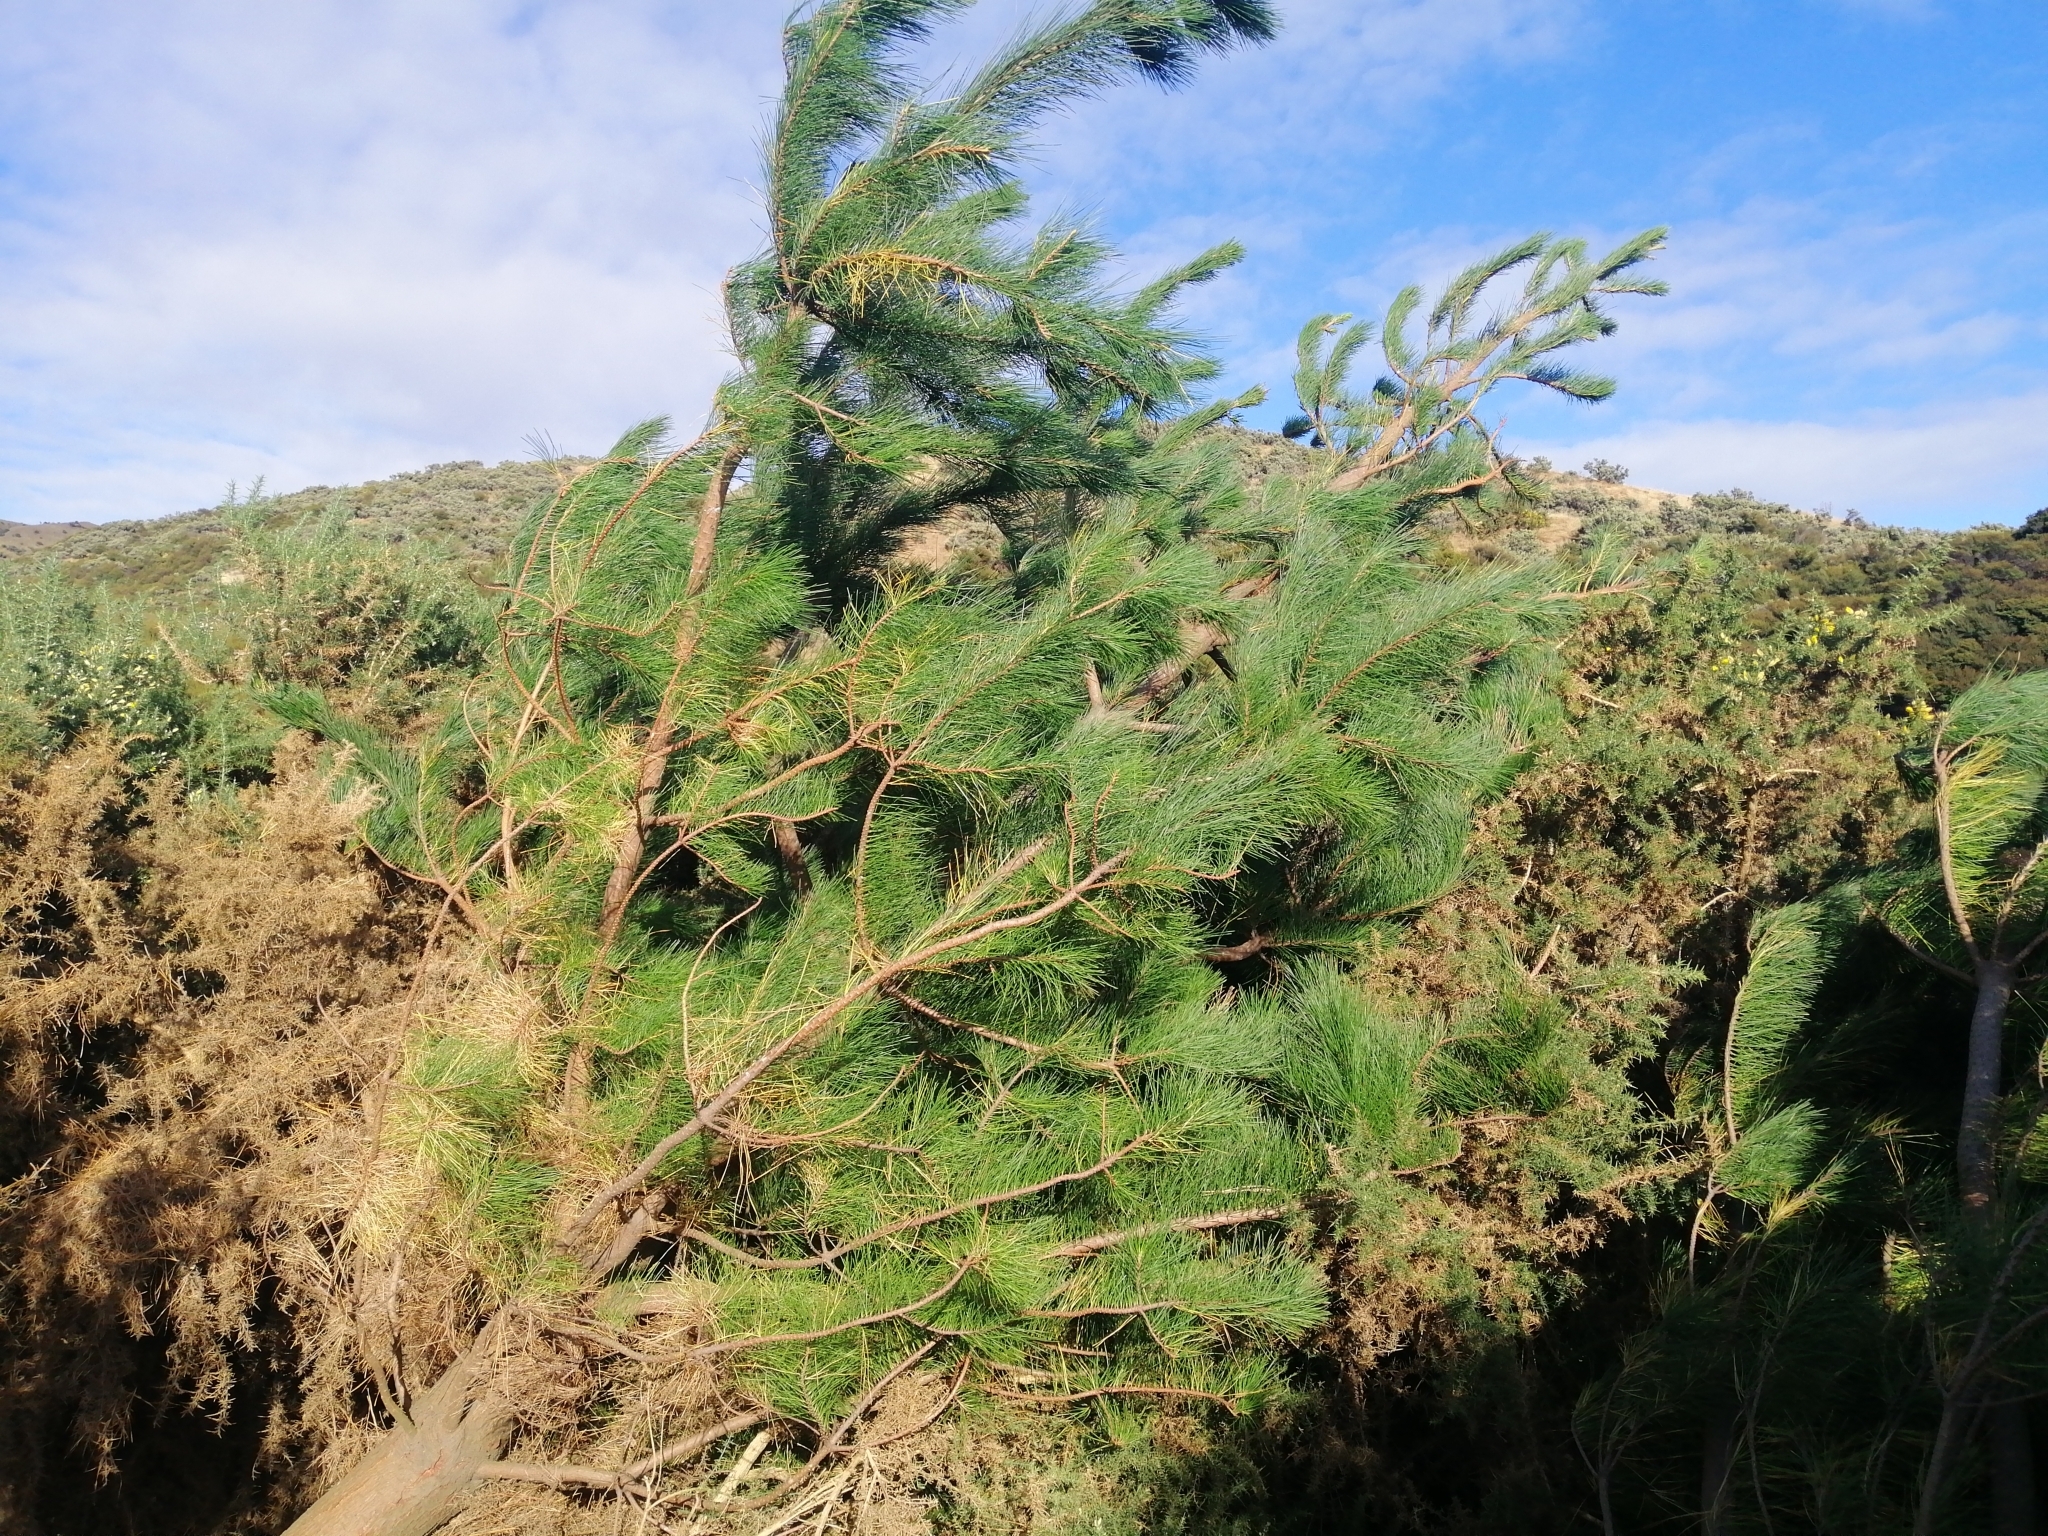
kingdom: Plantae
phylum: Tracheophyta
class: Pinopsida
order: Pinales
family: Pinaceae
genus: Pinus
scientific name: Pinus radiata
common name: Monterey pine
